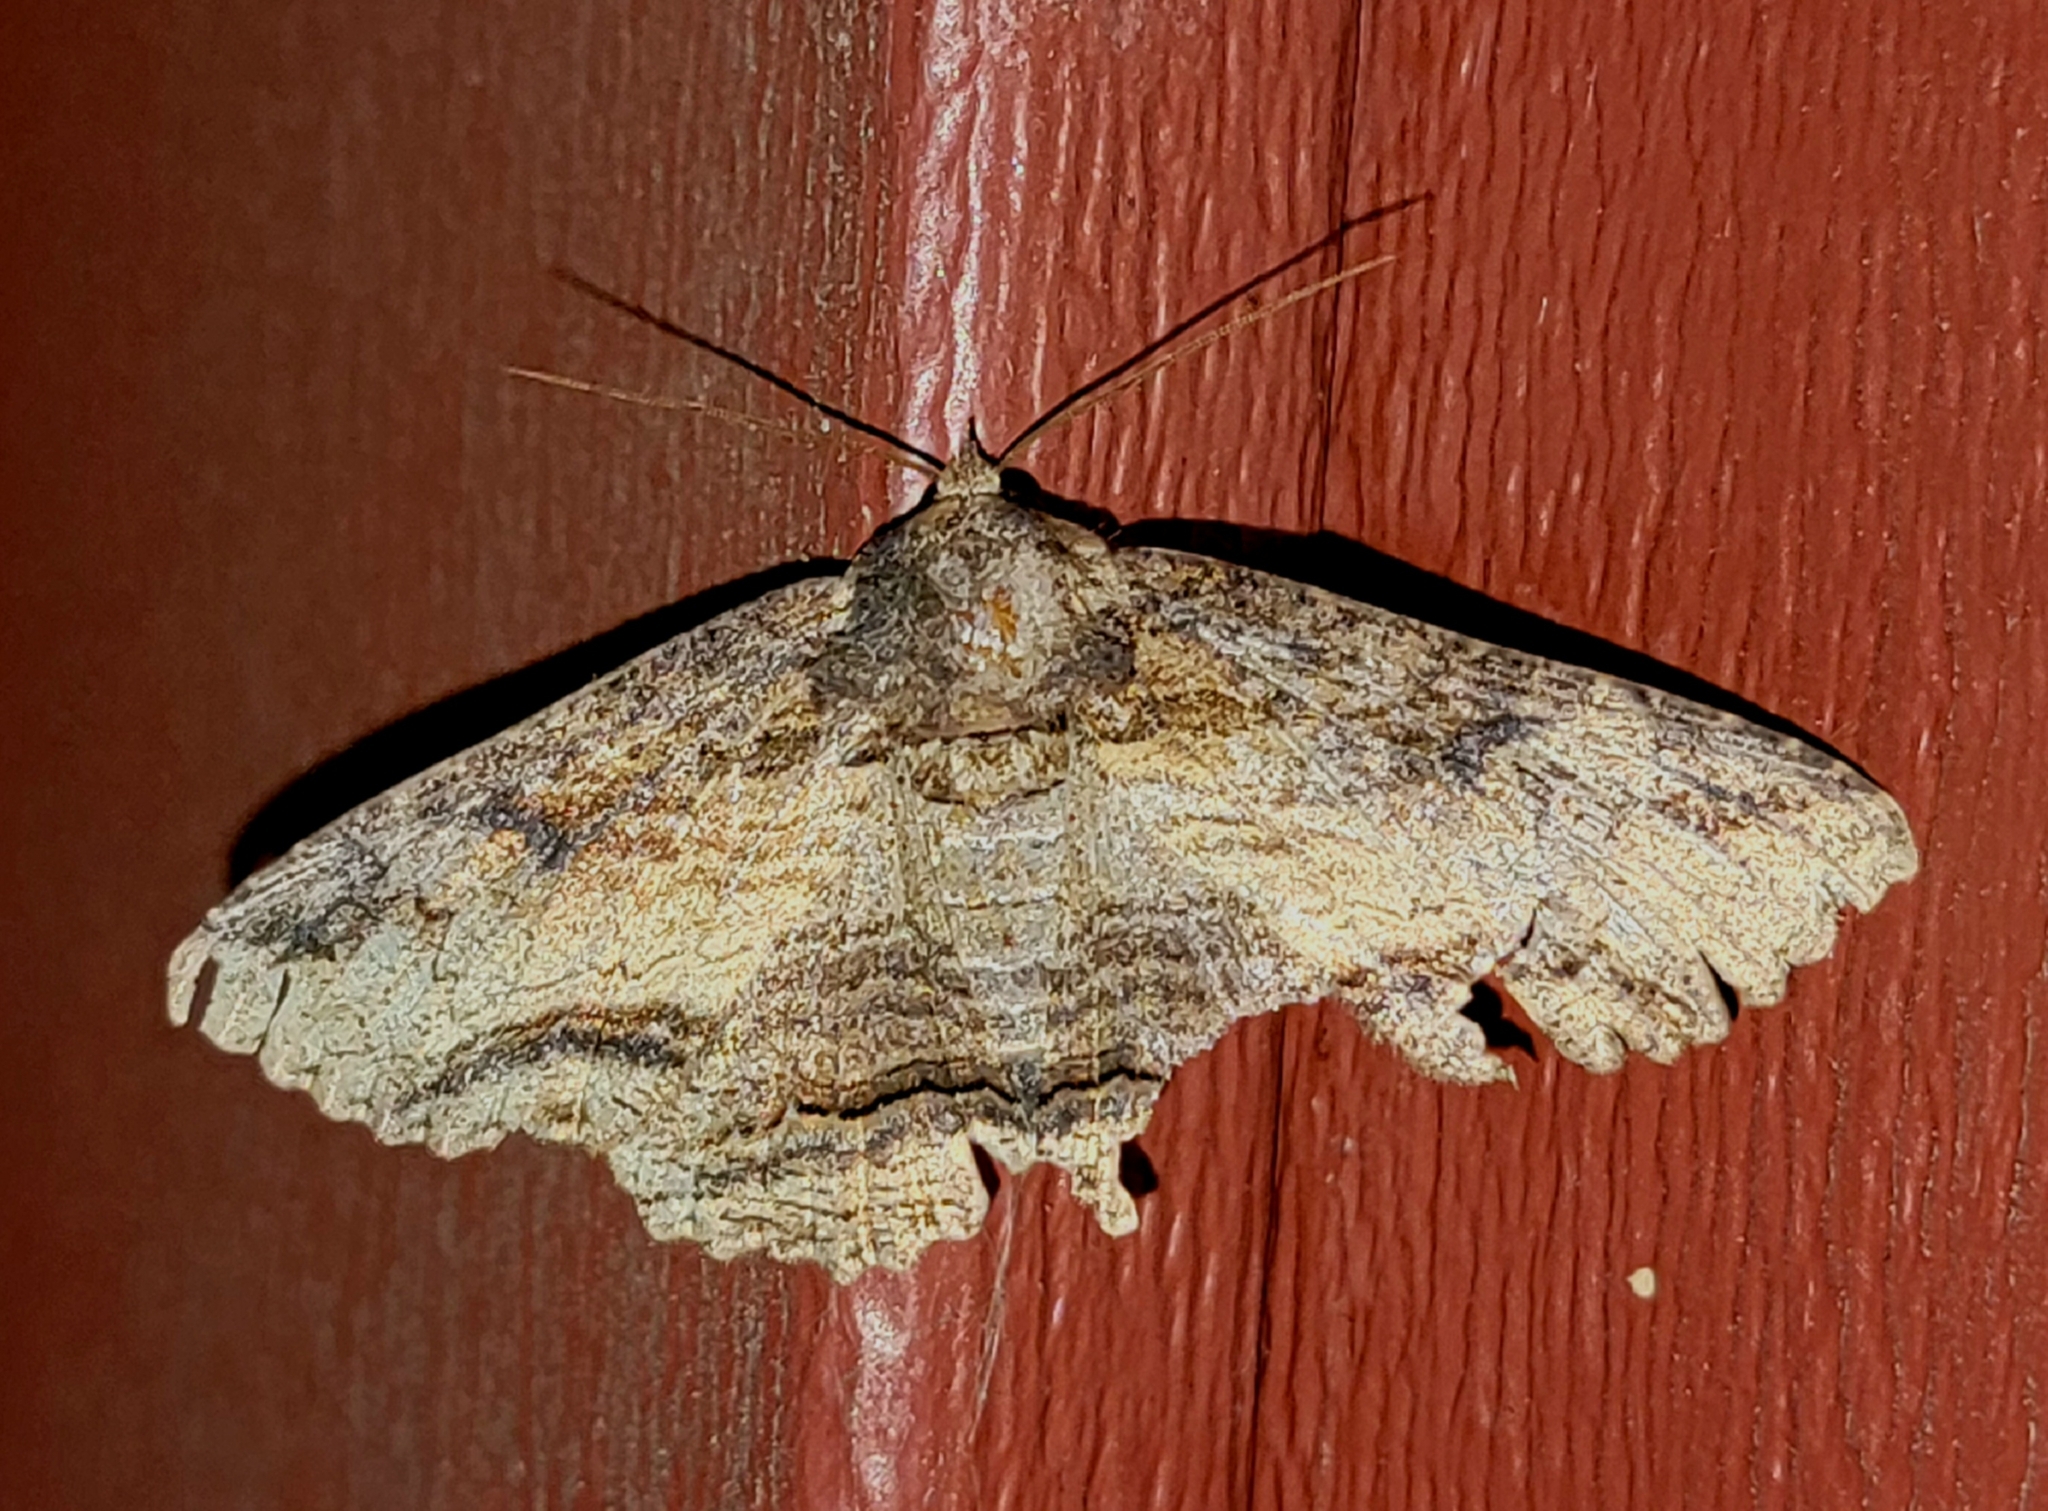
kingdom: Animalia
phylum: Arthropoda
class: Insecta
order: Lepidoptera
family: Erebidae
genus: Zale
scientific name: Zale lunata
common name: Lunate zale moth
